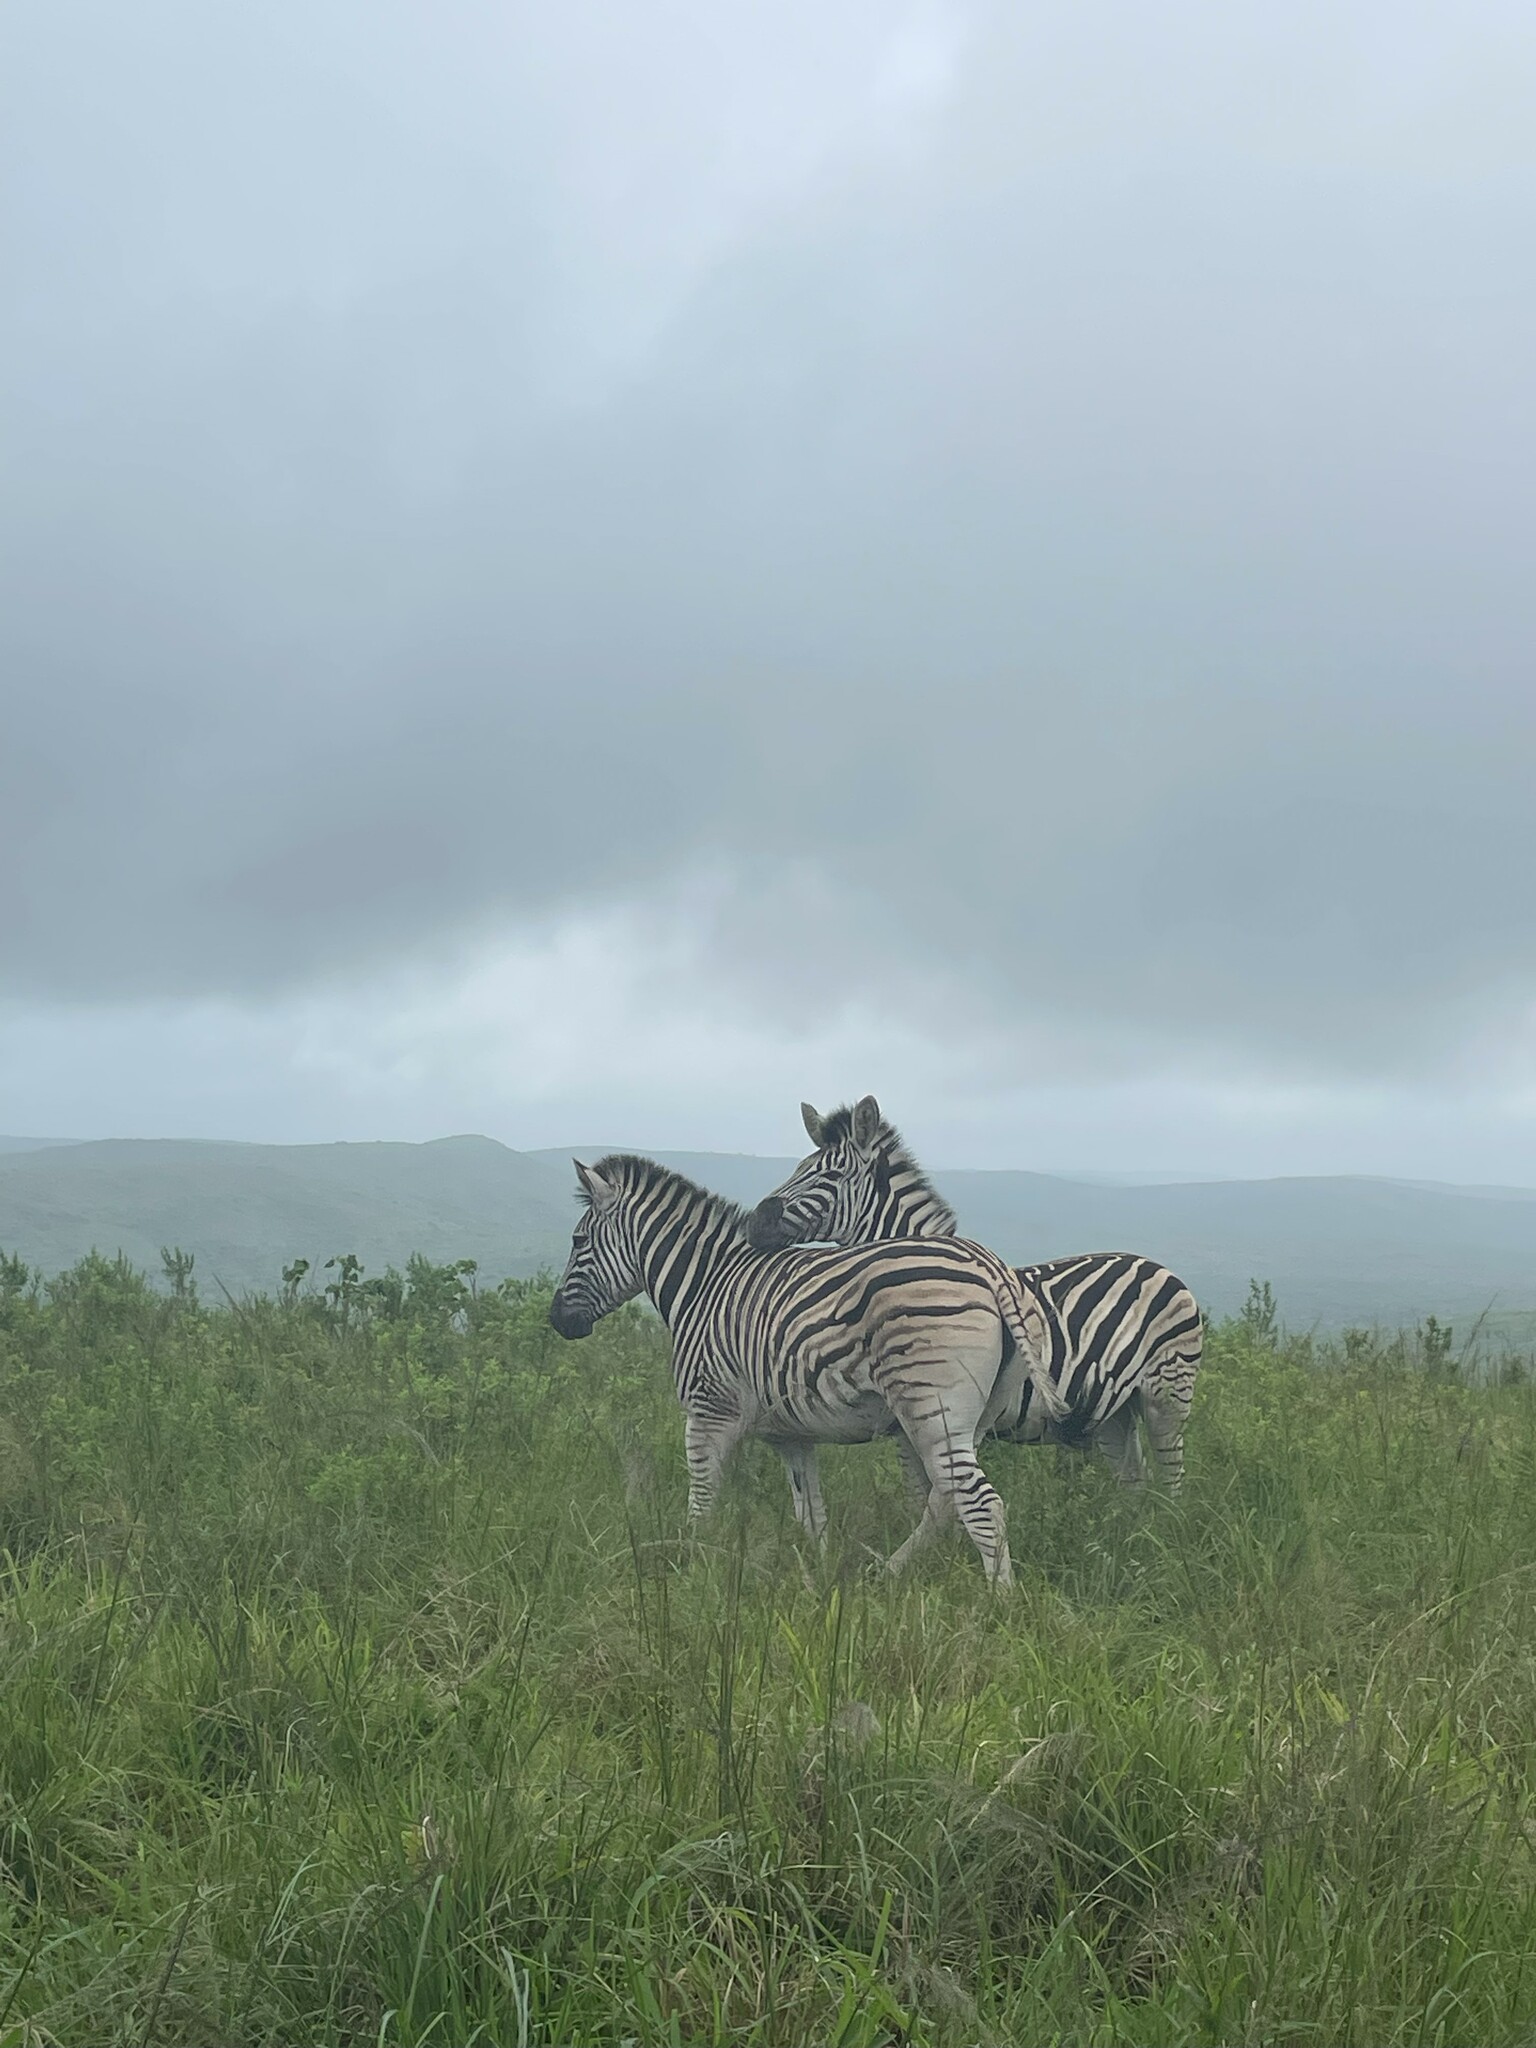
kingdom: Animalia
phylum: Chordata
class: Mammalia
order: Perissodactyla
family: Equidae
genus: Equus
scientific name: Equus quagga
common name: Plains zebra
